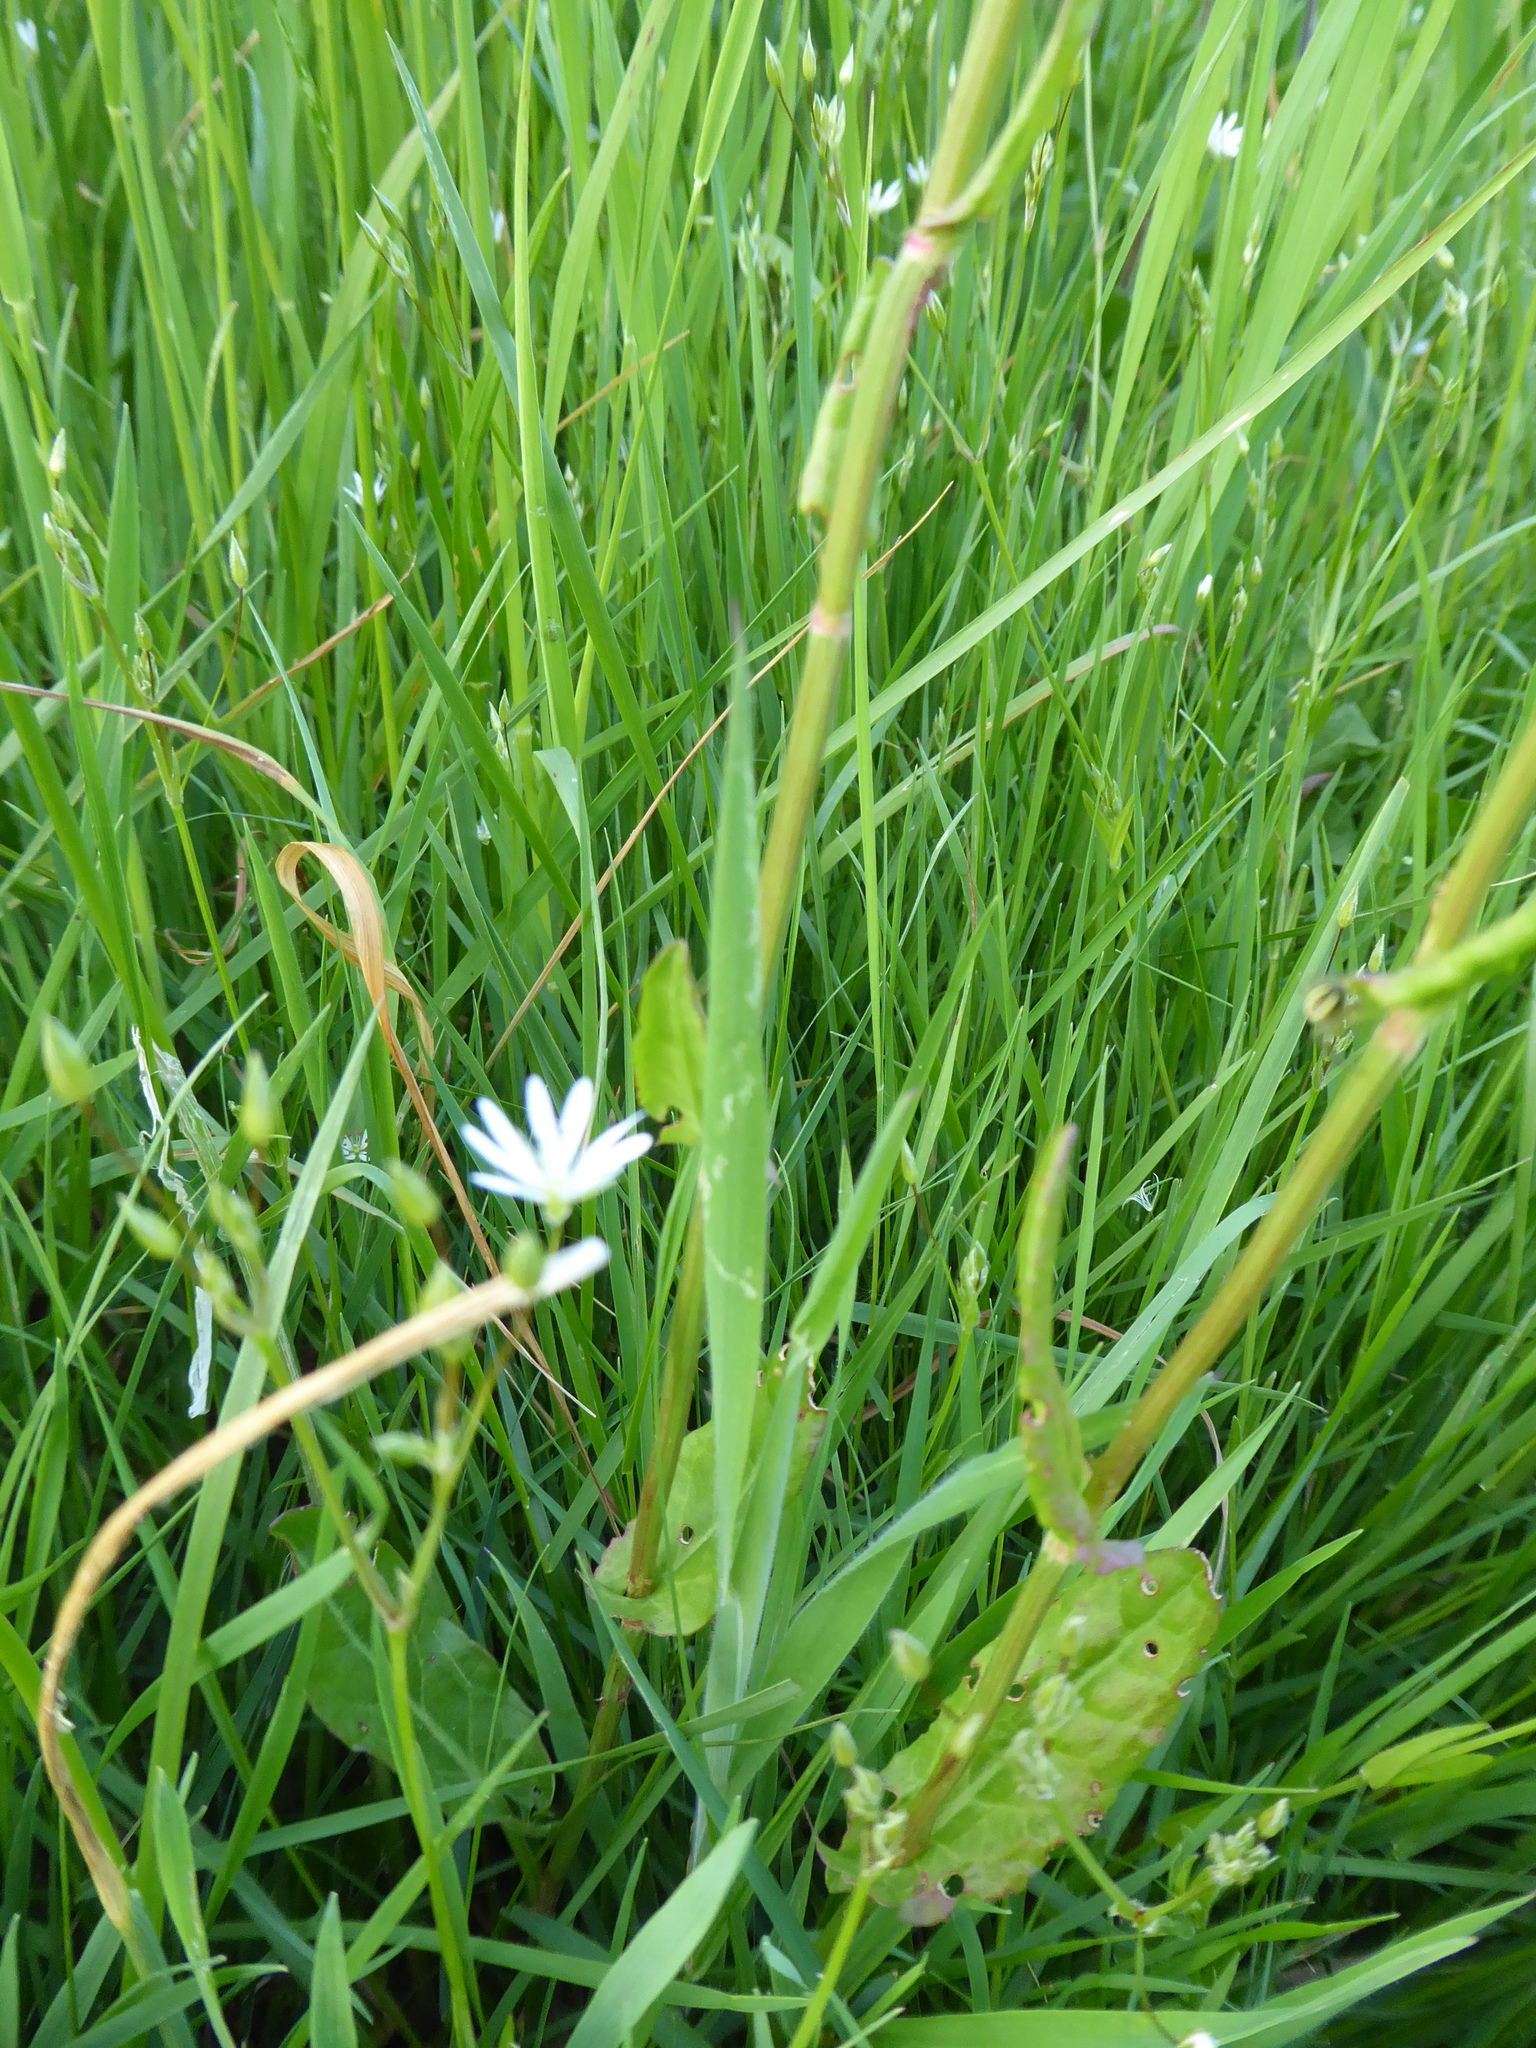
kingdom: Plantae
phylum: Tracheophyta
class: Magnoliopsida
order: Caryophyllales
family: Polygonaceae
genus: Rumex
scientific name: Rumex acetosa
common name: Garden sorrel
